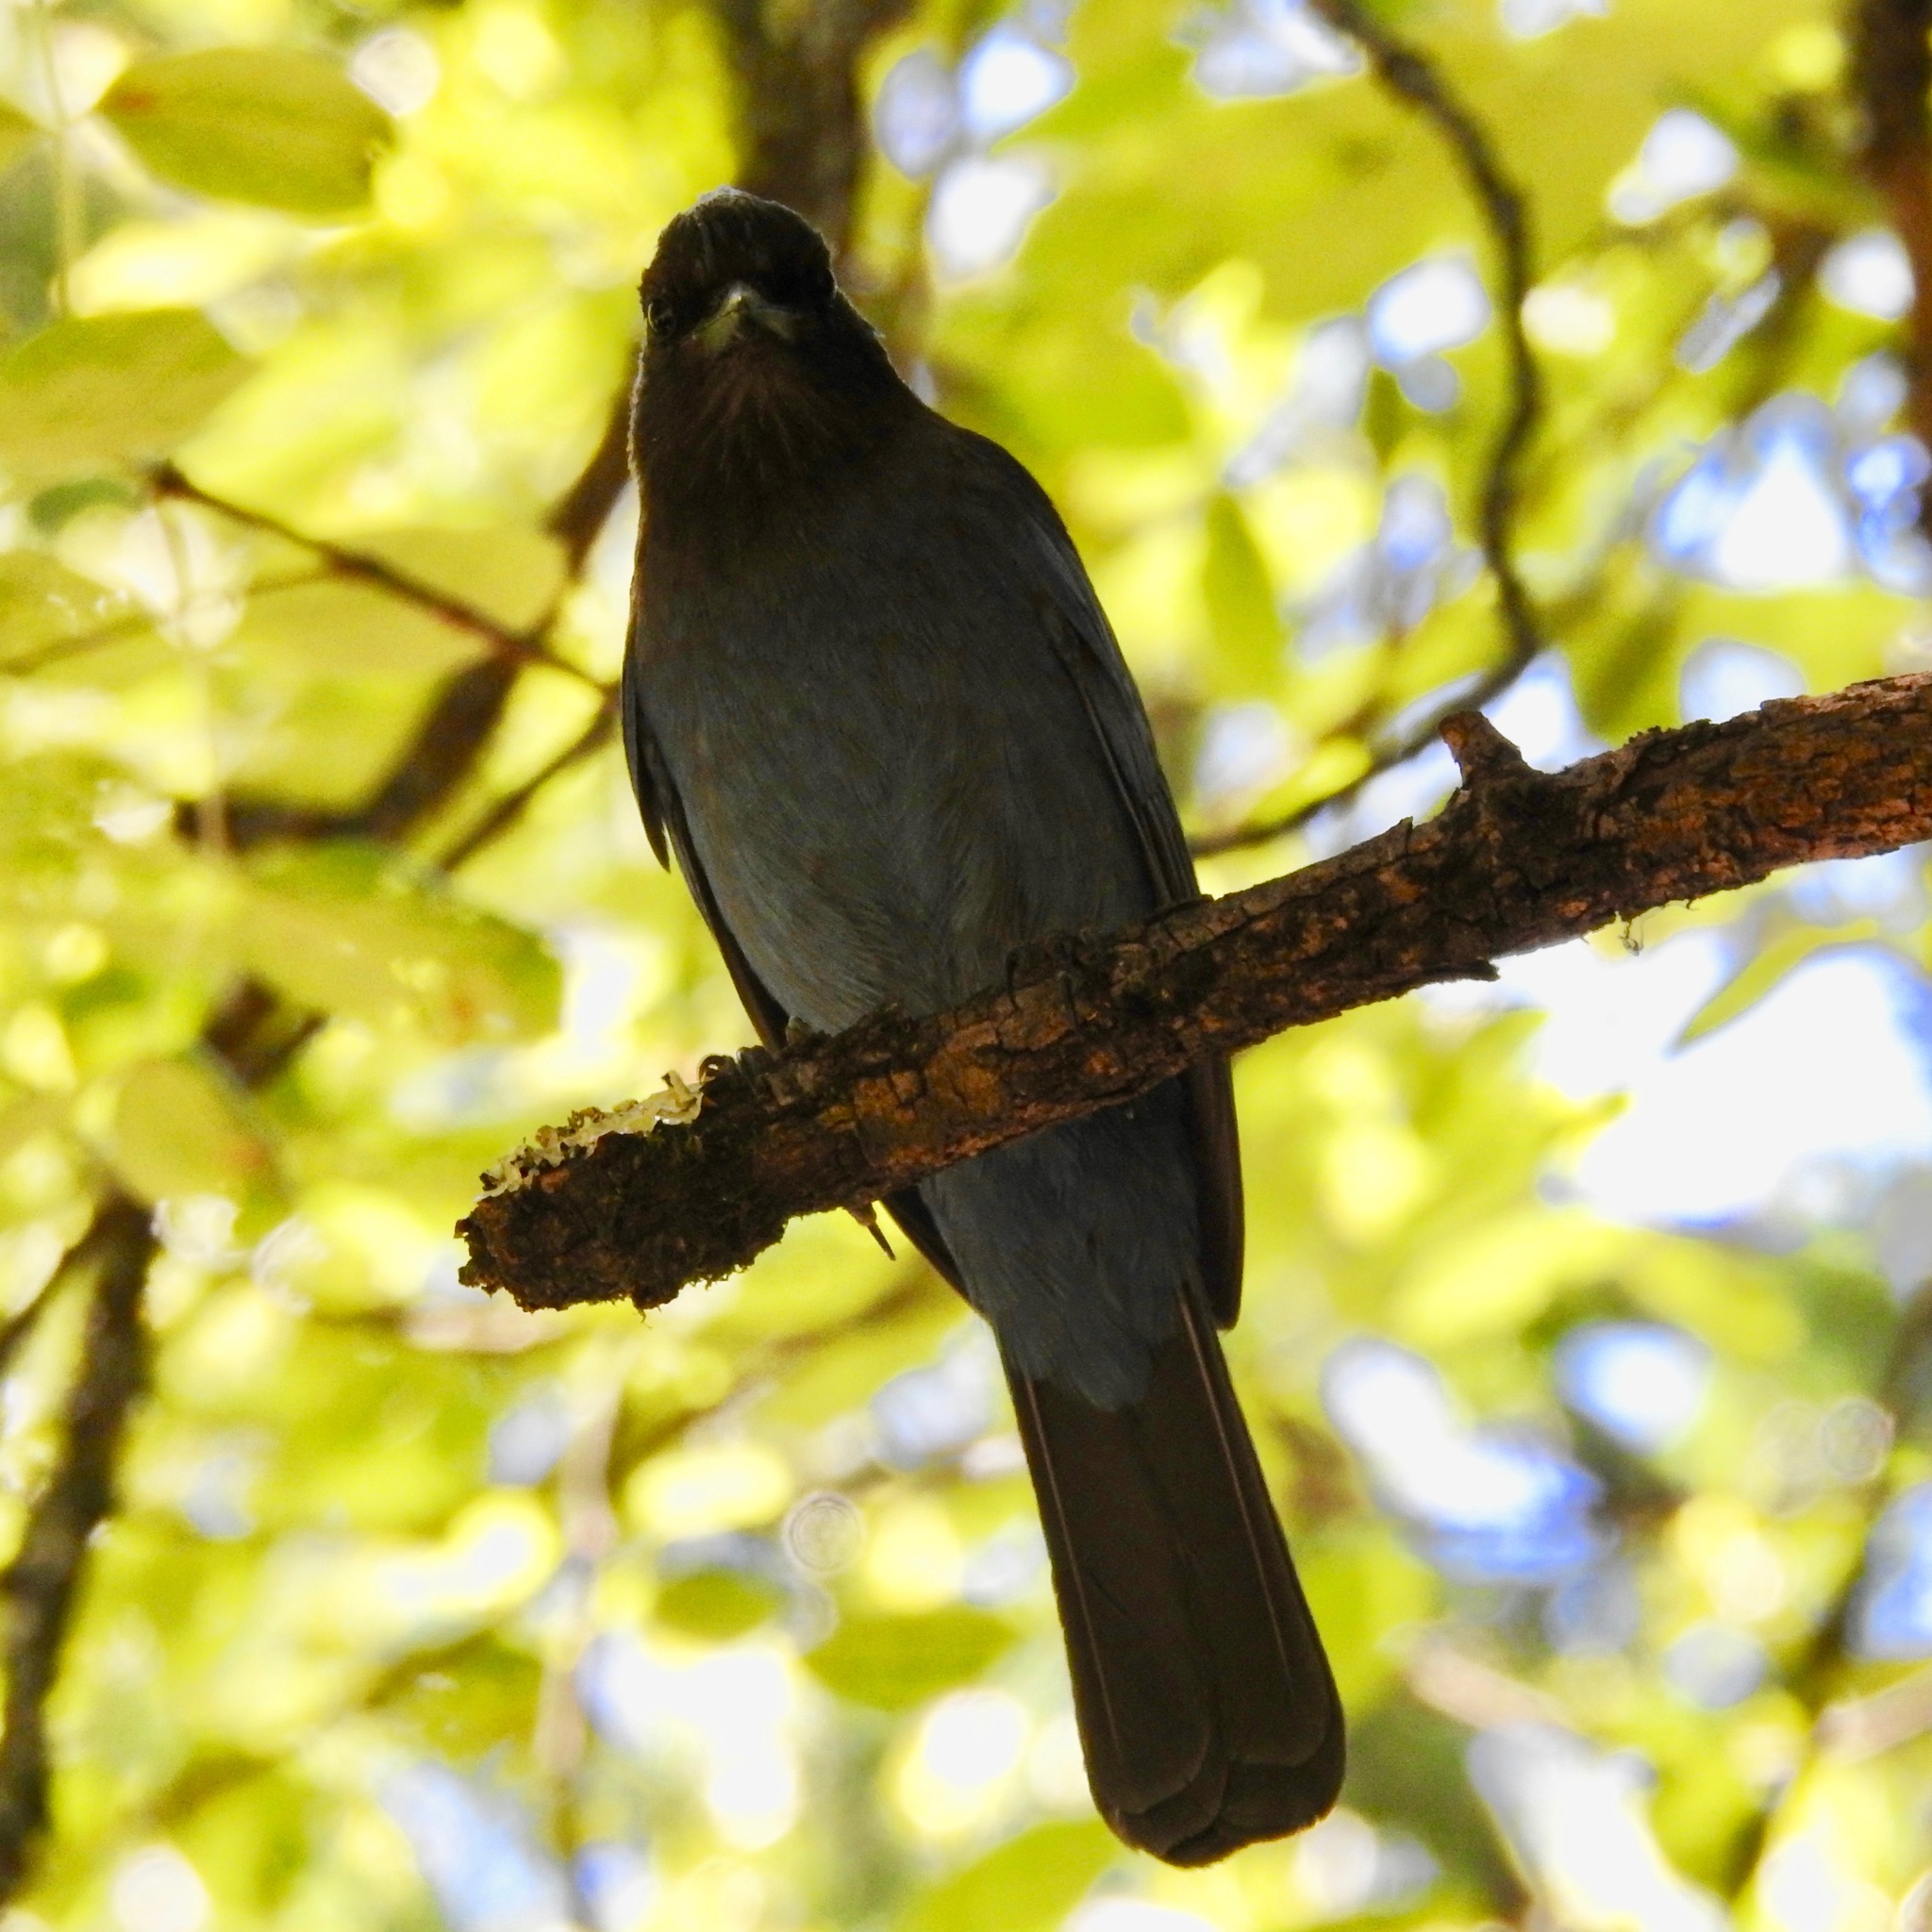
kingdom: Animalia
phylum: Chordata
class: Aves
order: Passeriformes
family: Corvidae
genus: Cyanocitta
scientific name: Cyanocitta stelleri
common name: Steller's jay
